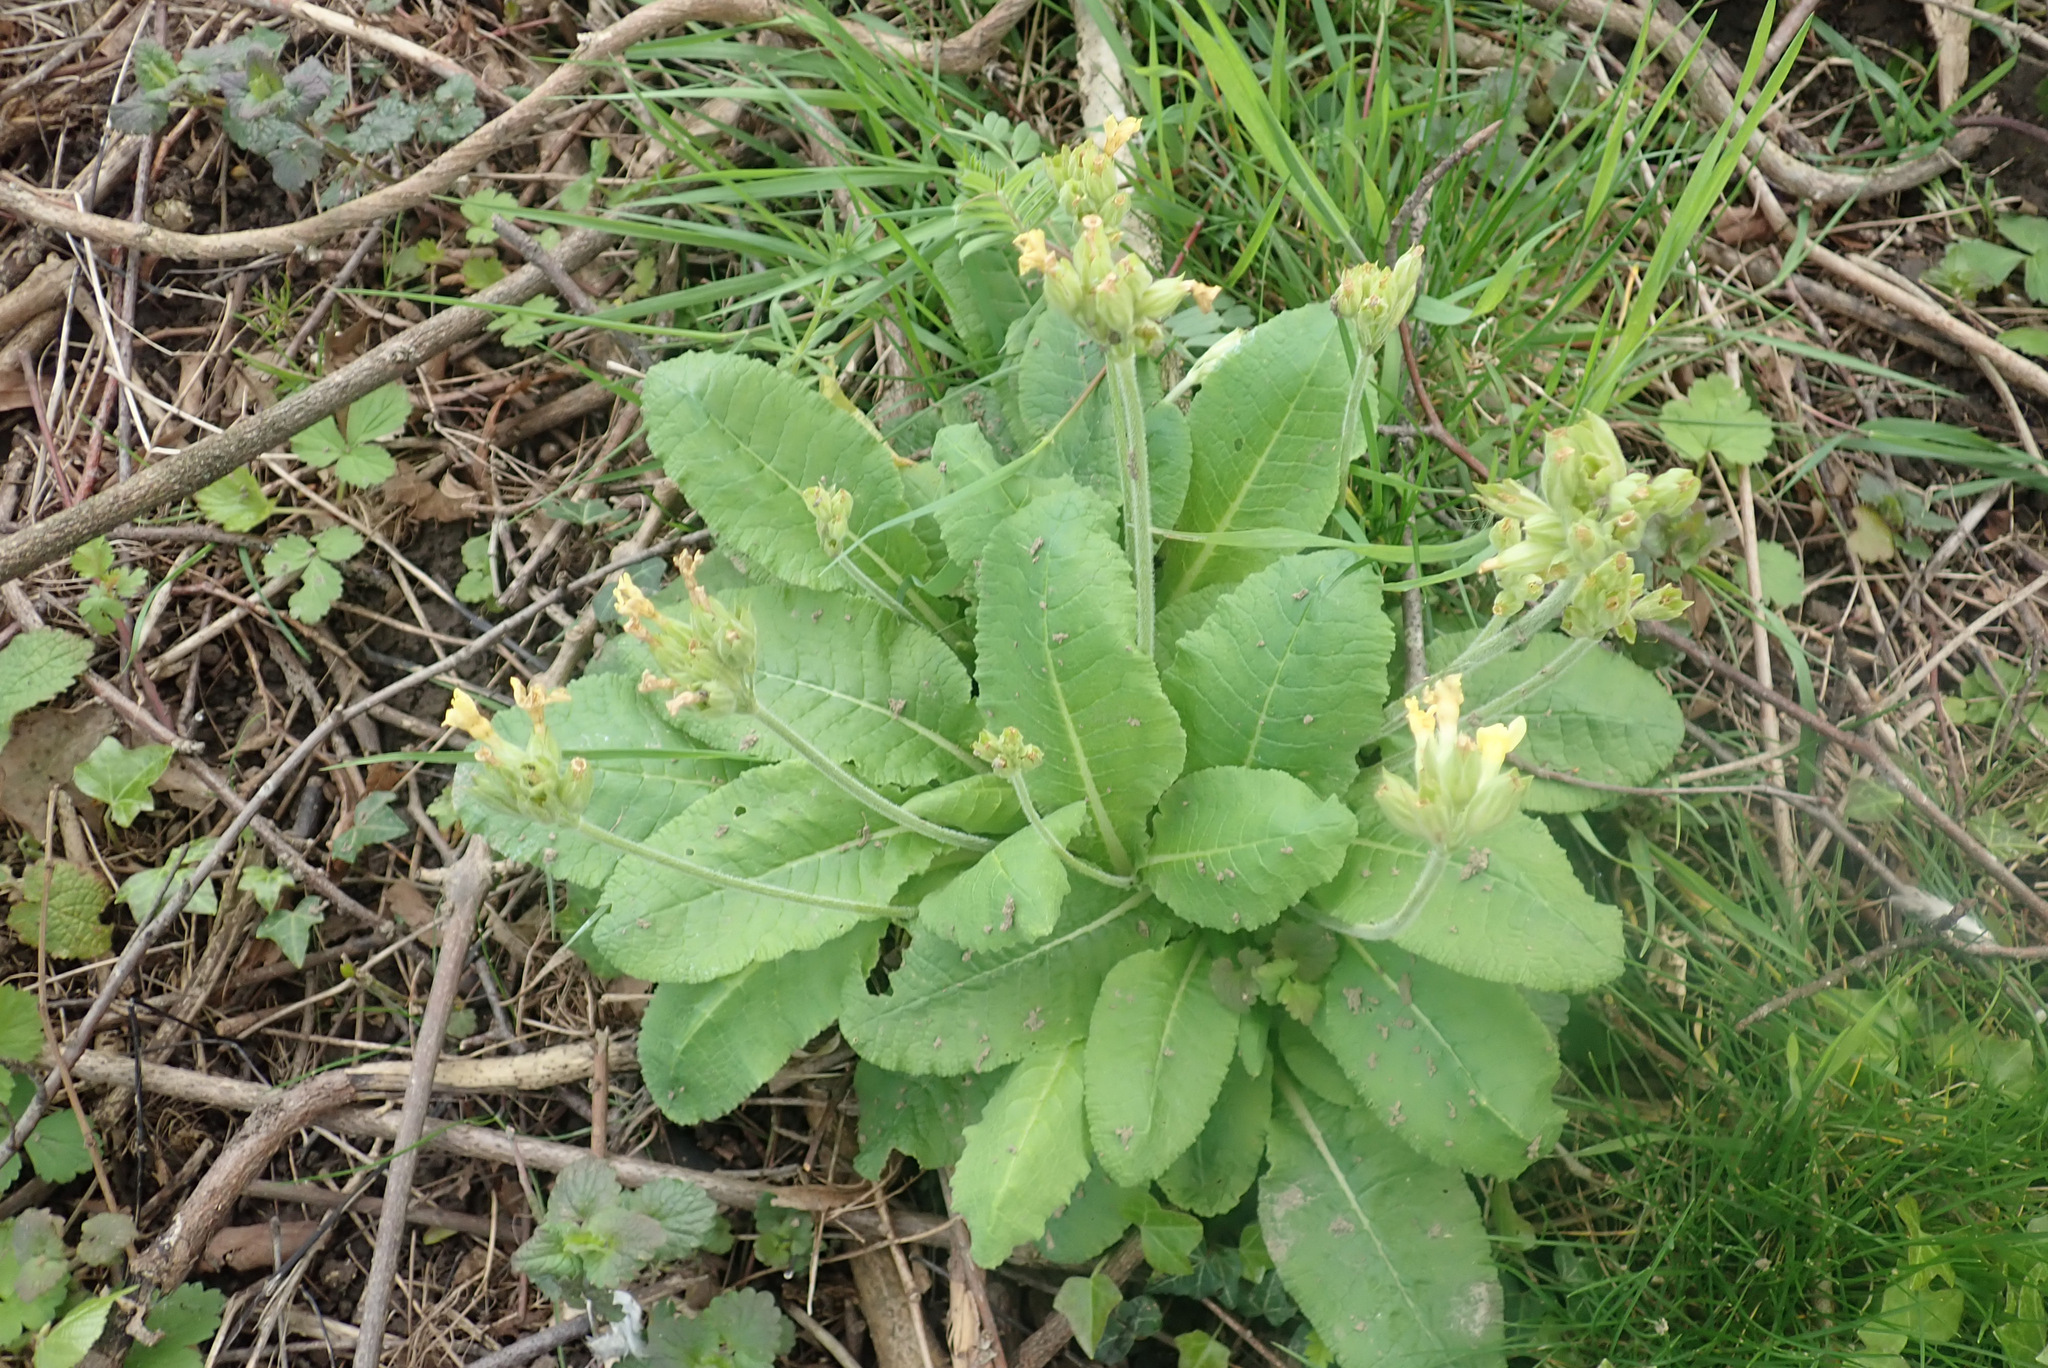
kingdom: Plantae
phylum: Tracheophyta
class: Magnoliopsida
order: Ericales
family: Primulaceae
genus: Primula
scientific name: Primula elatior
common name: Oxlip
